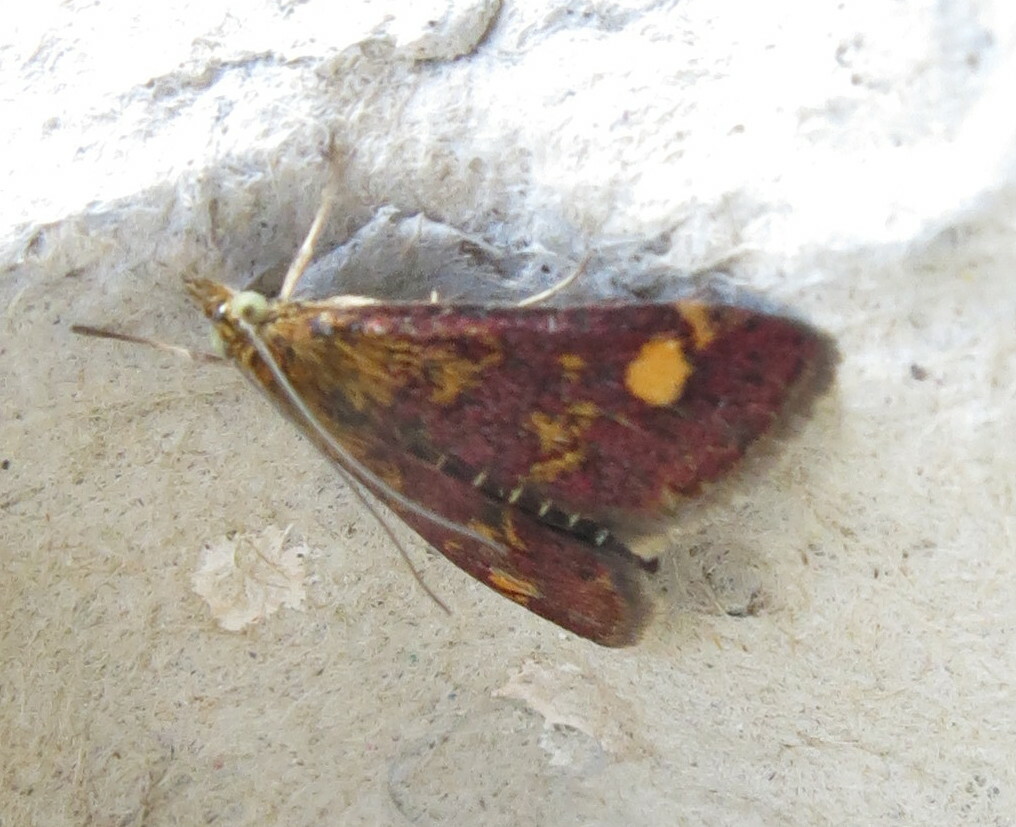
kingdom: Animalia
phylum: Arthropoda
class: Insecta
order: Lepidoptera
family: Crambidae
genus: Pyrausta
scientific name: Pyrausta aurata
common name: Small purple & gold
